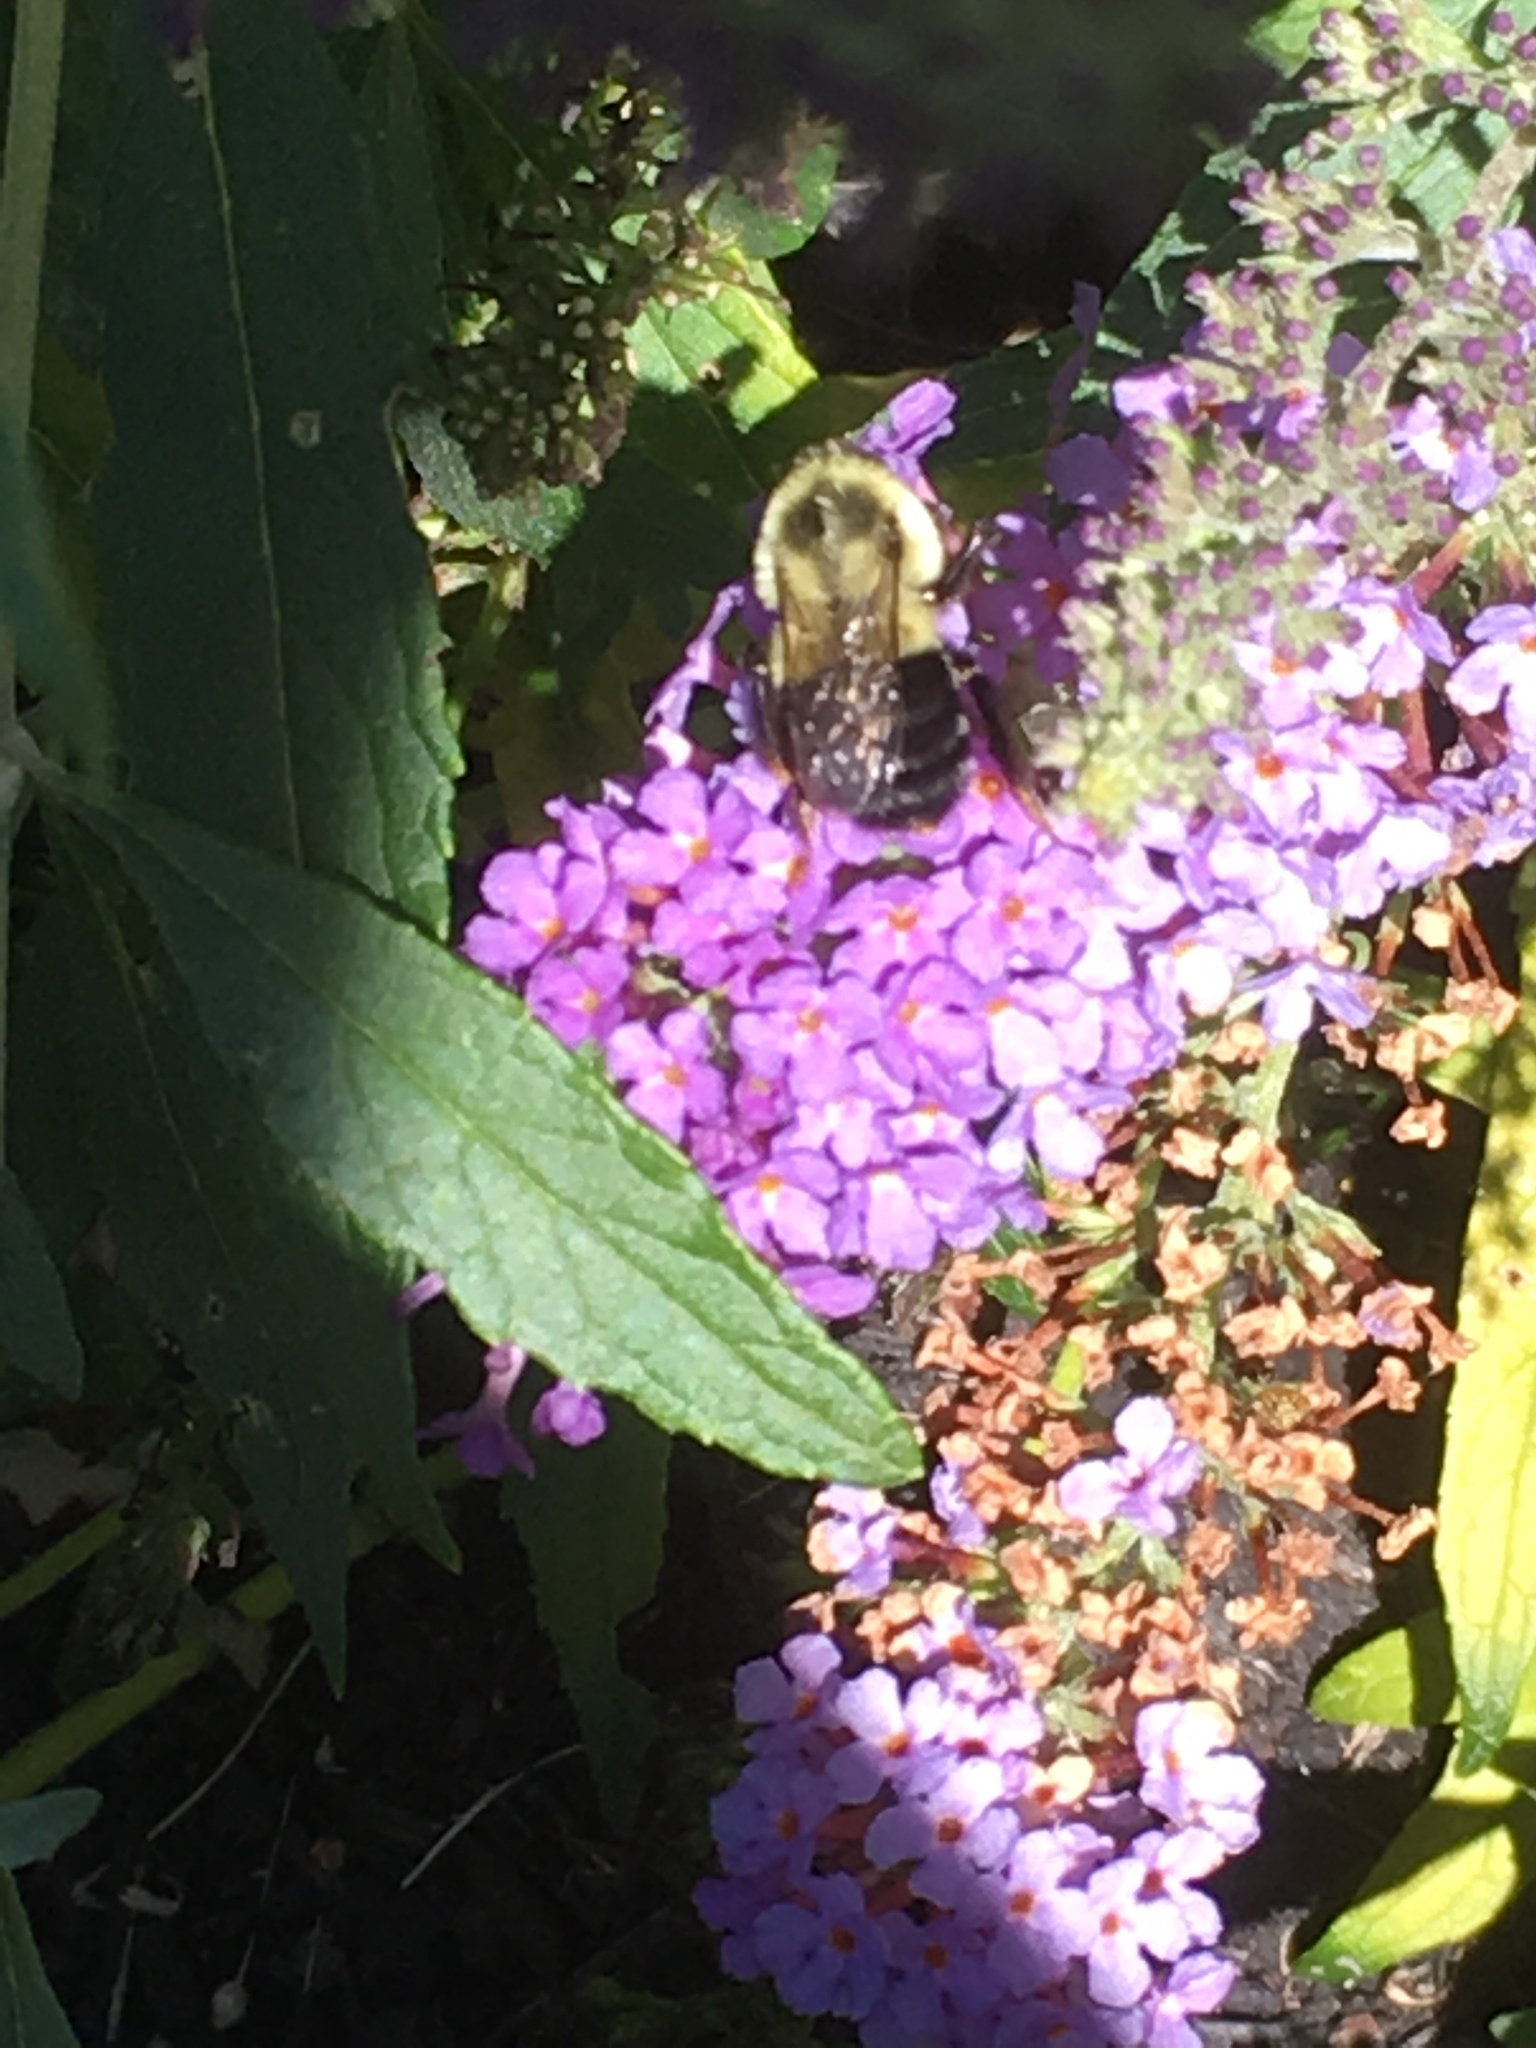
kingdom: Animalia
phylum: Arthropoda
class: Insecta
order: Hymenoptera
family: Apidae
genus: Bombus
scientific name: Bombus impatiens
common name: Common eastern bumble bee
